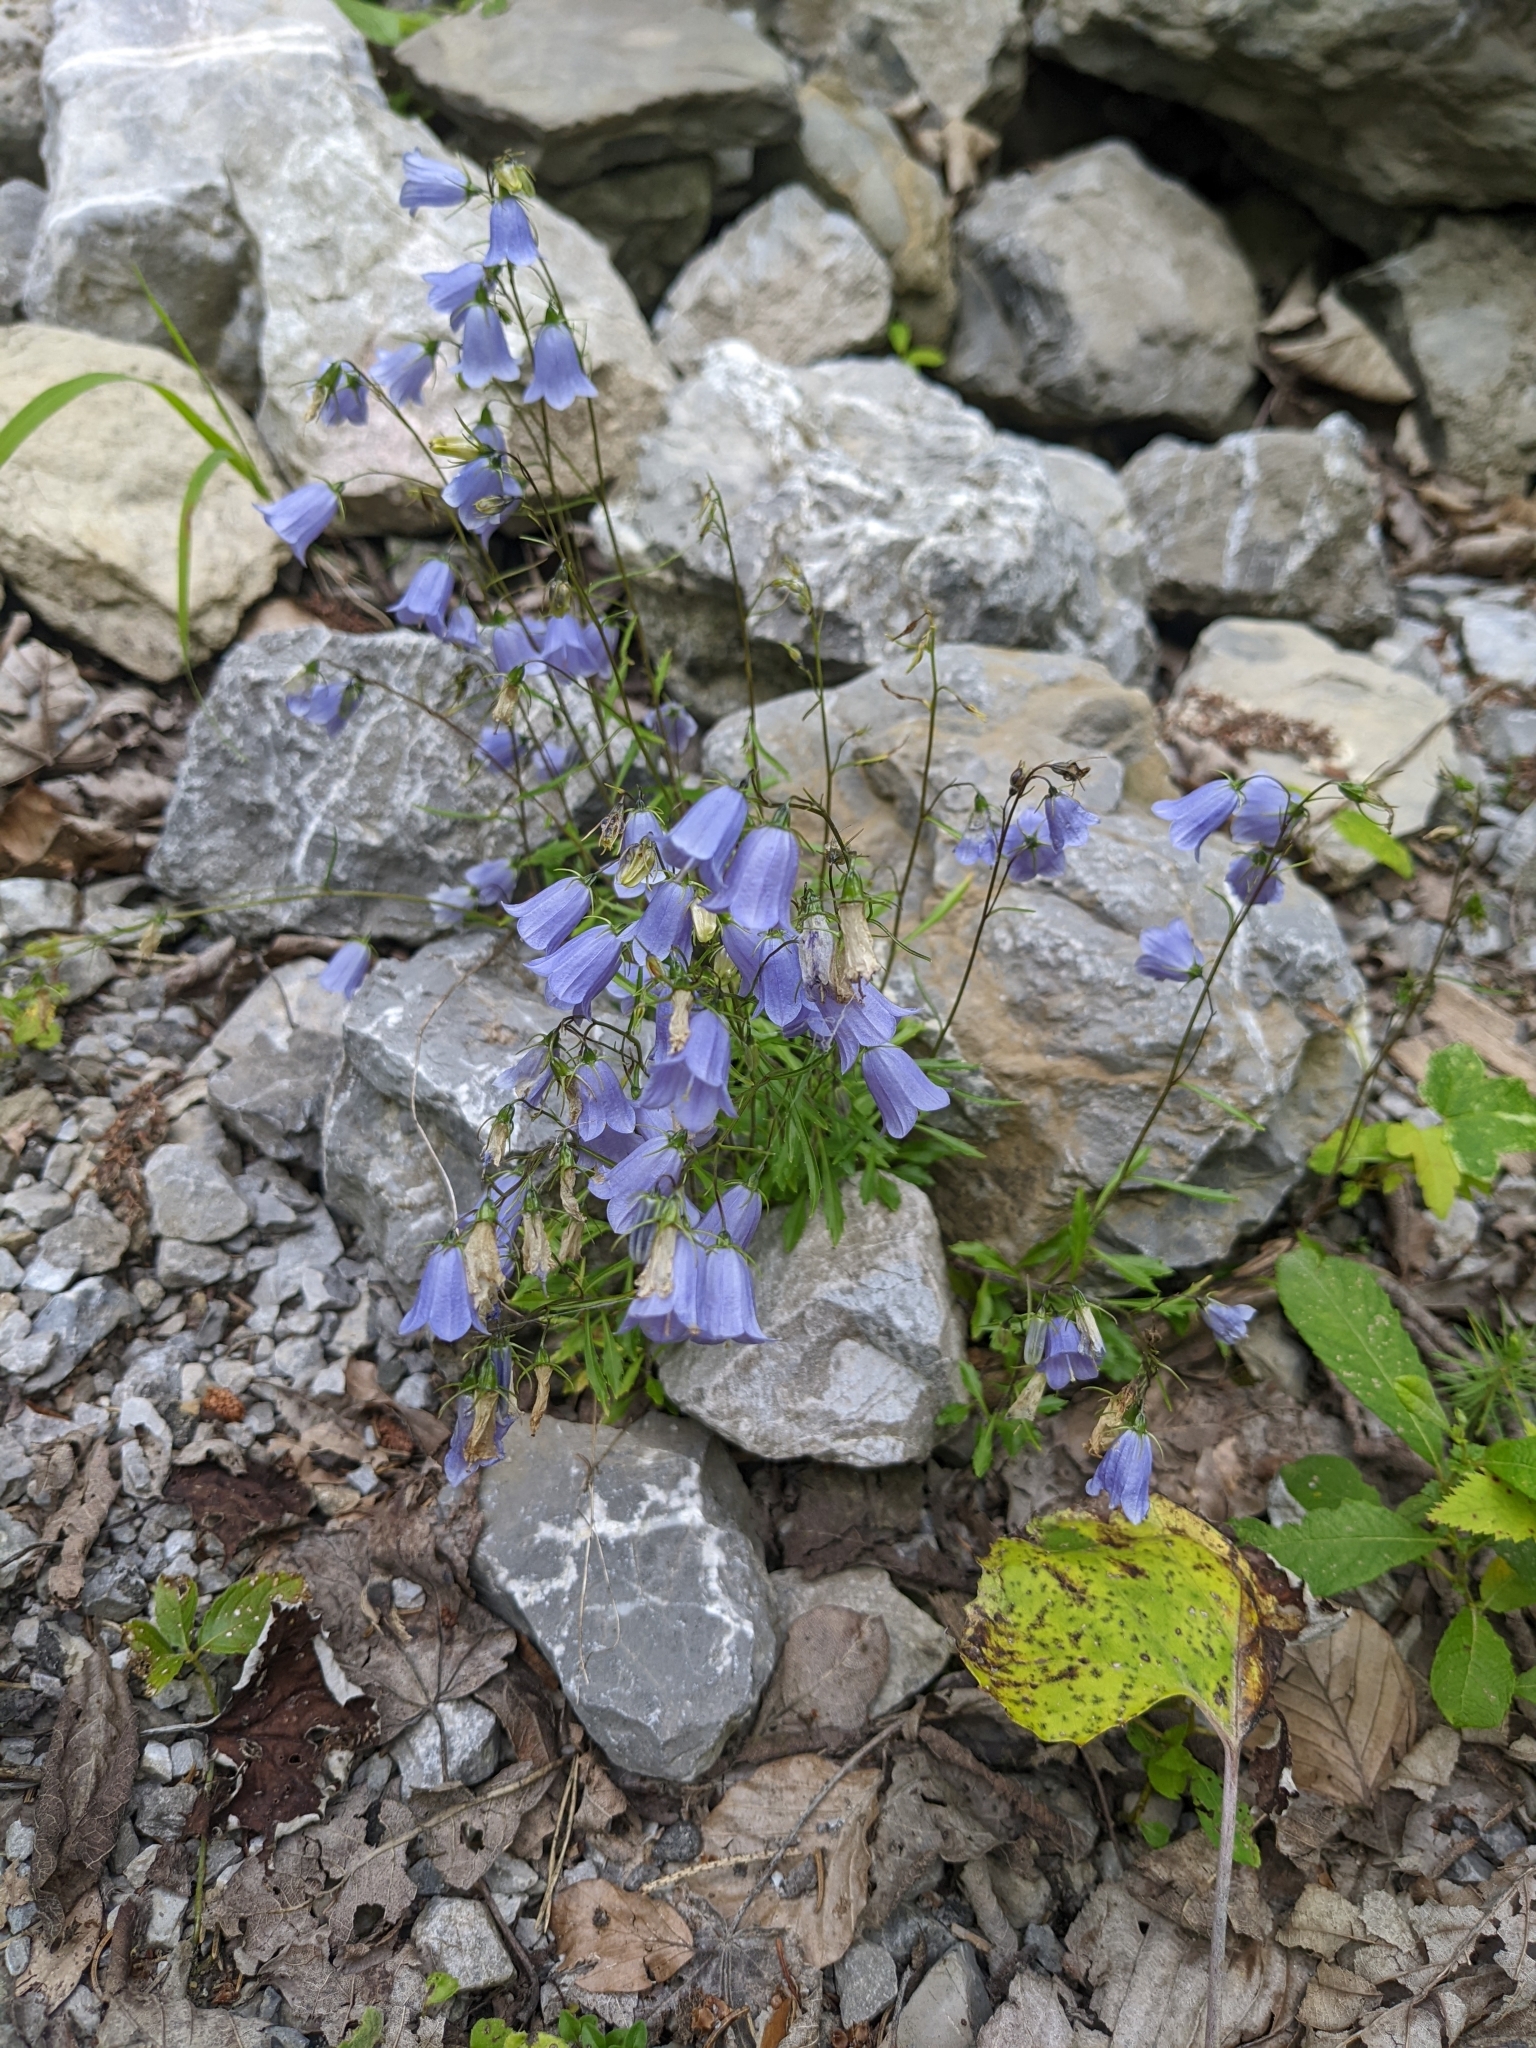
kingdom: Plantae
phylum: Tracheophyta
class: Magnoliopsida
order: Asterales
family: Campanulaceae
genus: Campanula
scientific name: Campanula cochleariifolia
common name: Fairies'-thimbles
